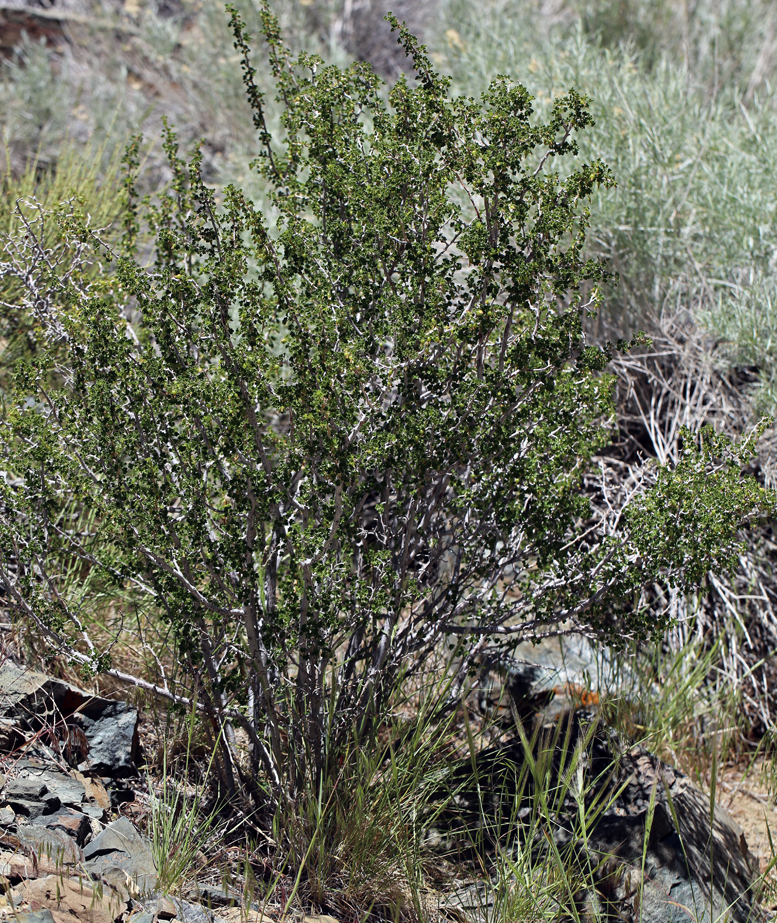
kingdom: Plantae
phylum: Tracheophyta
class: Magnoliopsida
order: Saxifragales
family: Grossulariaceae
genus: Ribes
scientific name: Ribes velutinum
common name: Desert gooseberry
